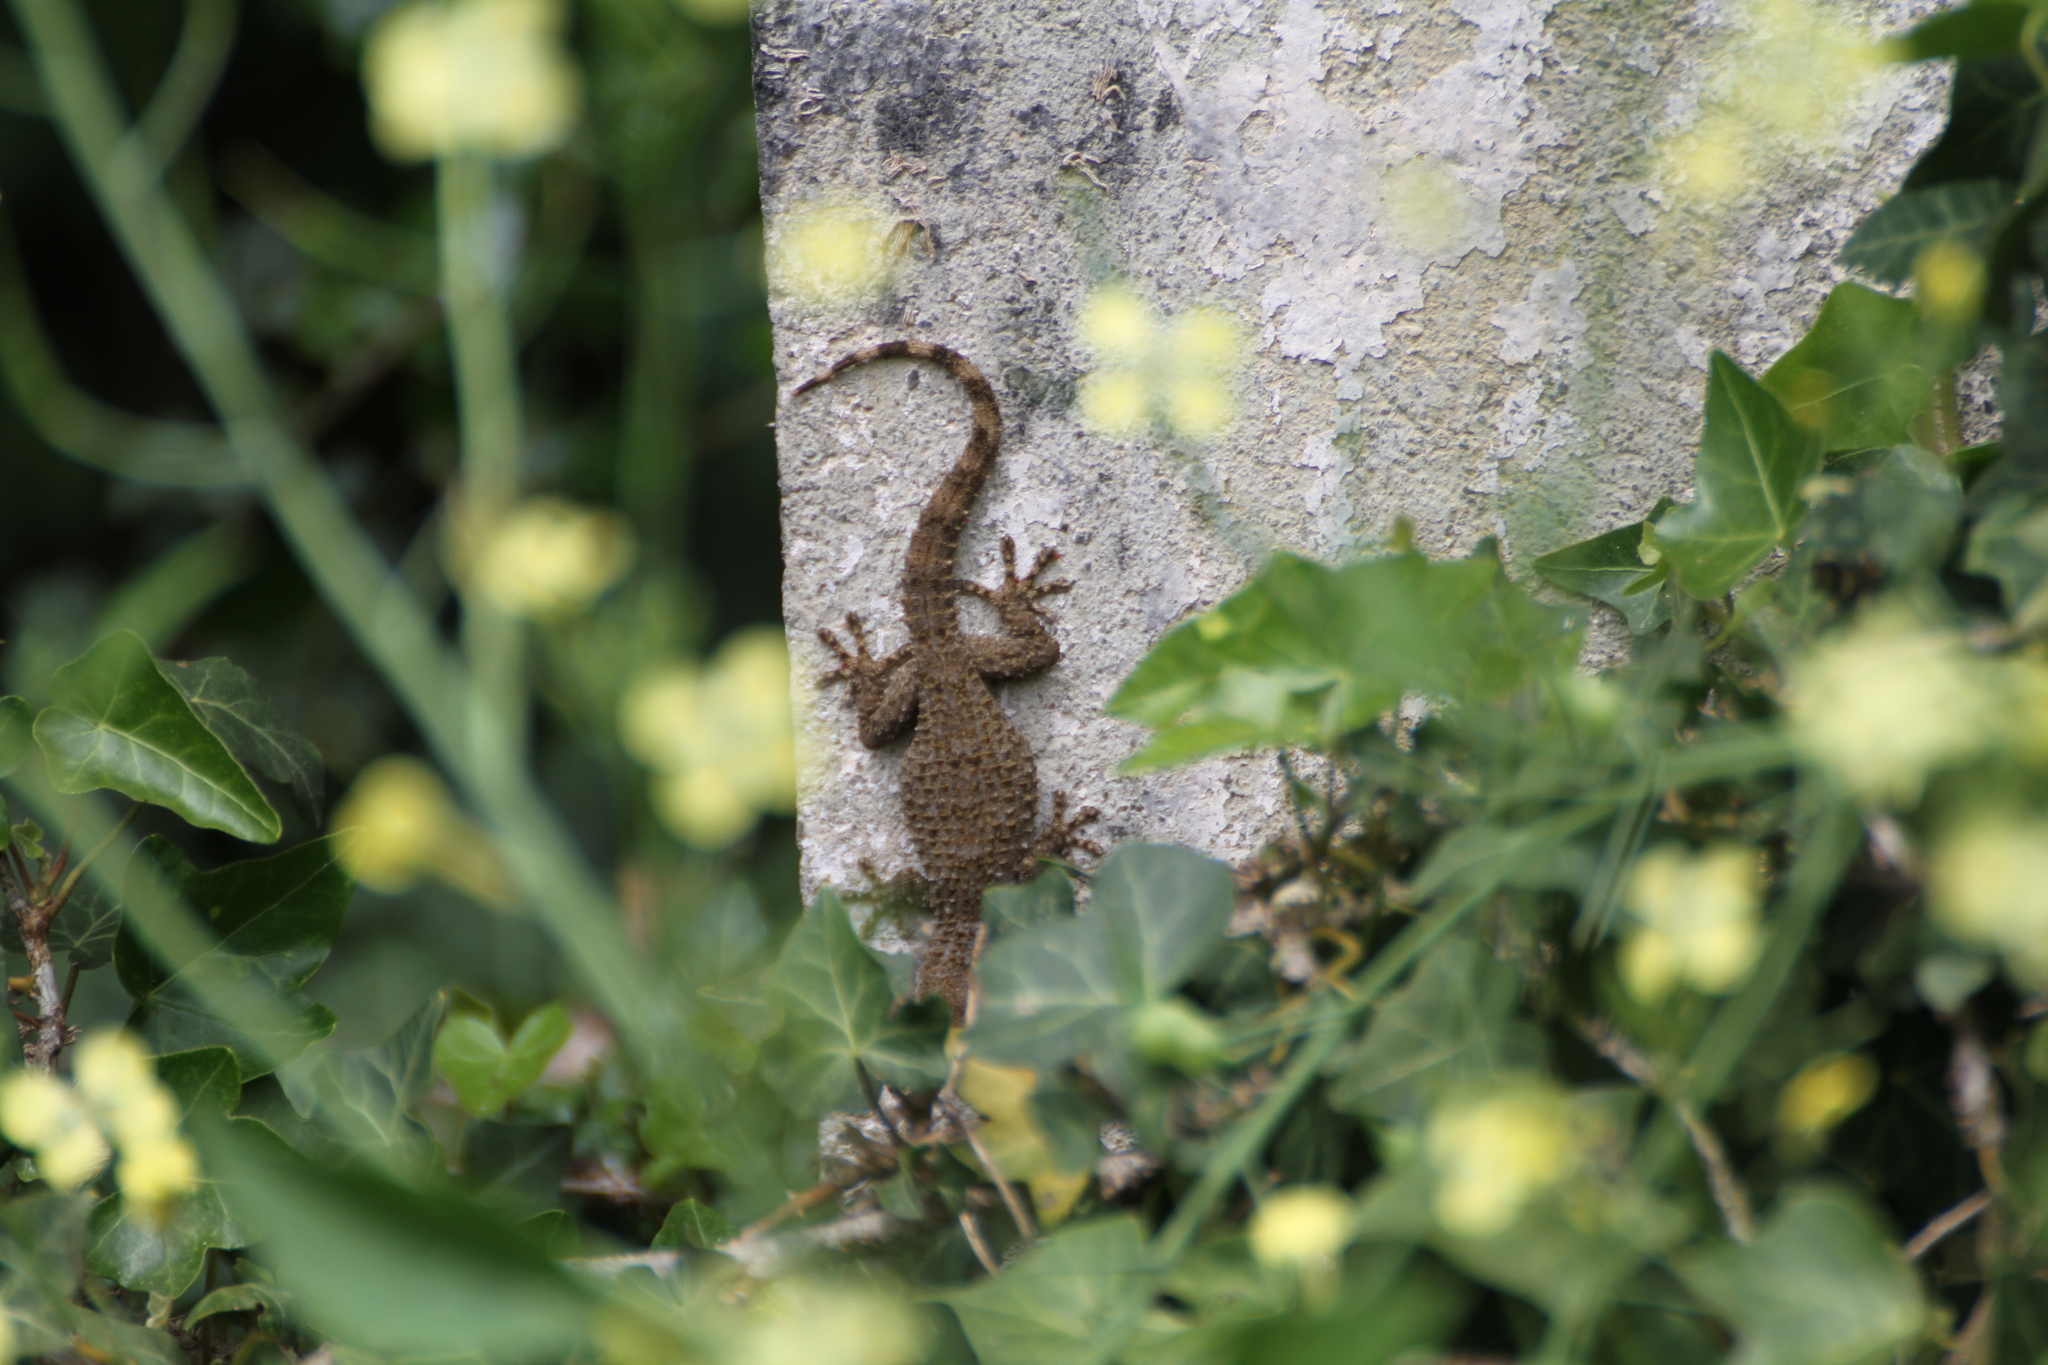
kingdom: Animalia
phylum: Chordata
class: Squamata
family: Phyllodactylidae
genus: Tarentola
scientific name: Tarentola mauritanica
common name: Moorish gecko
